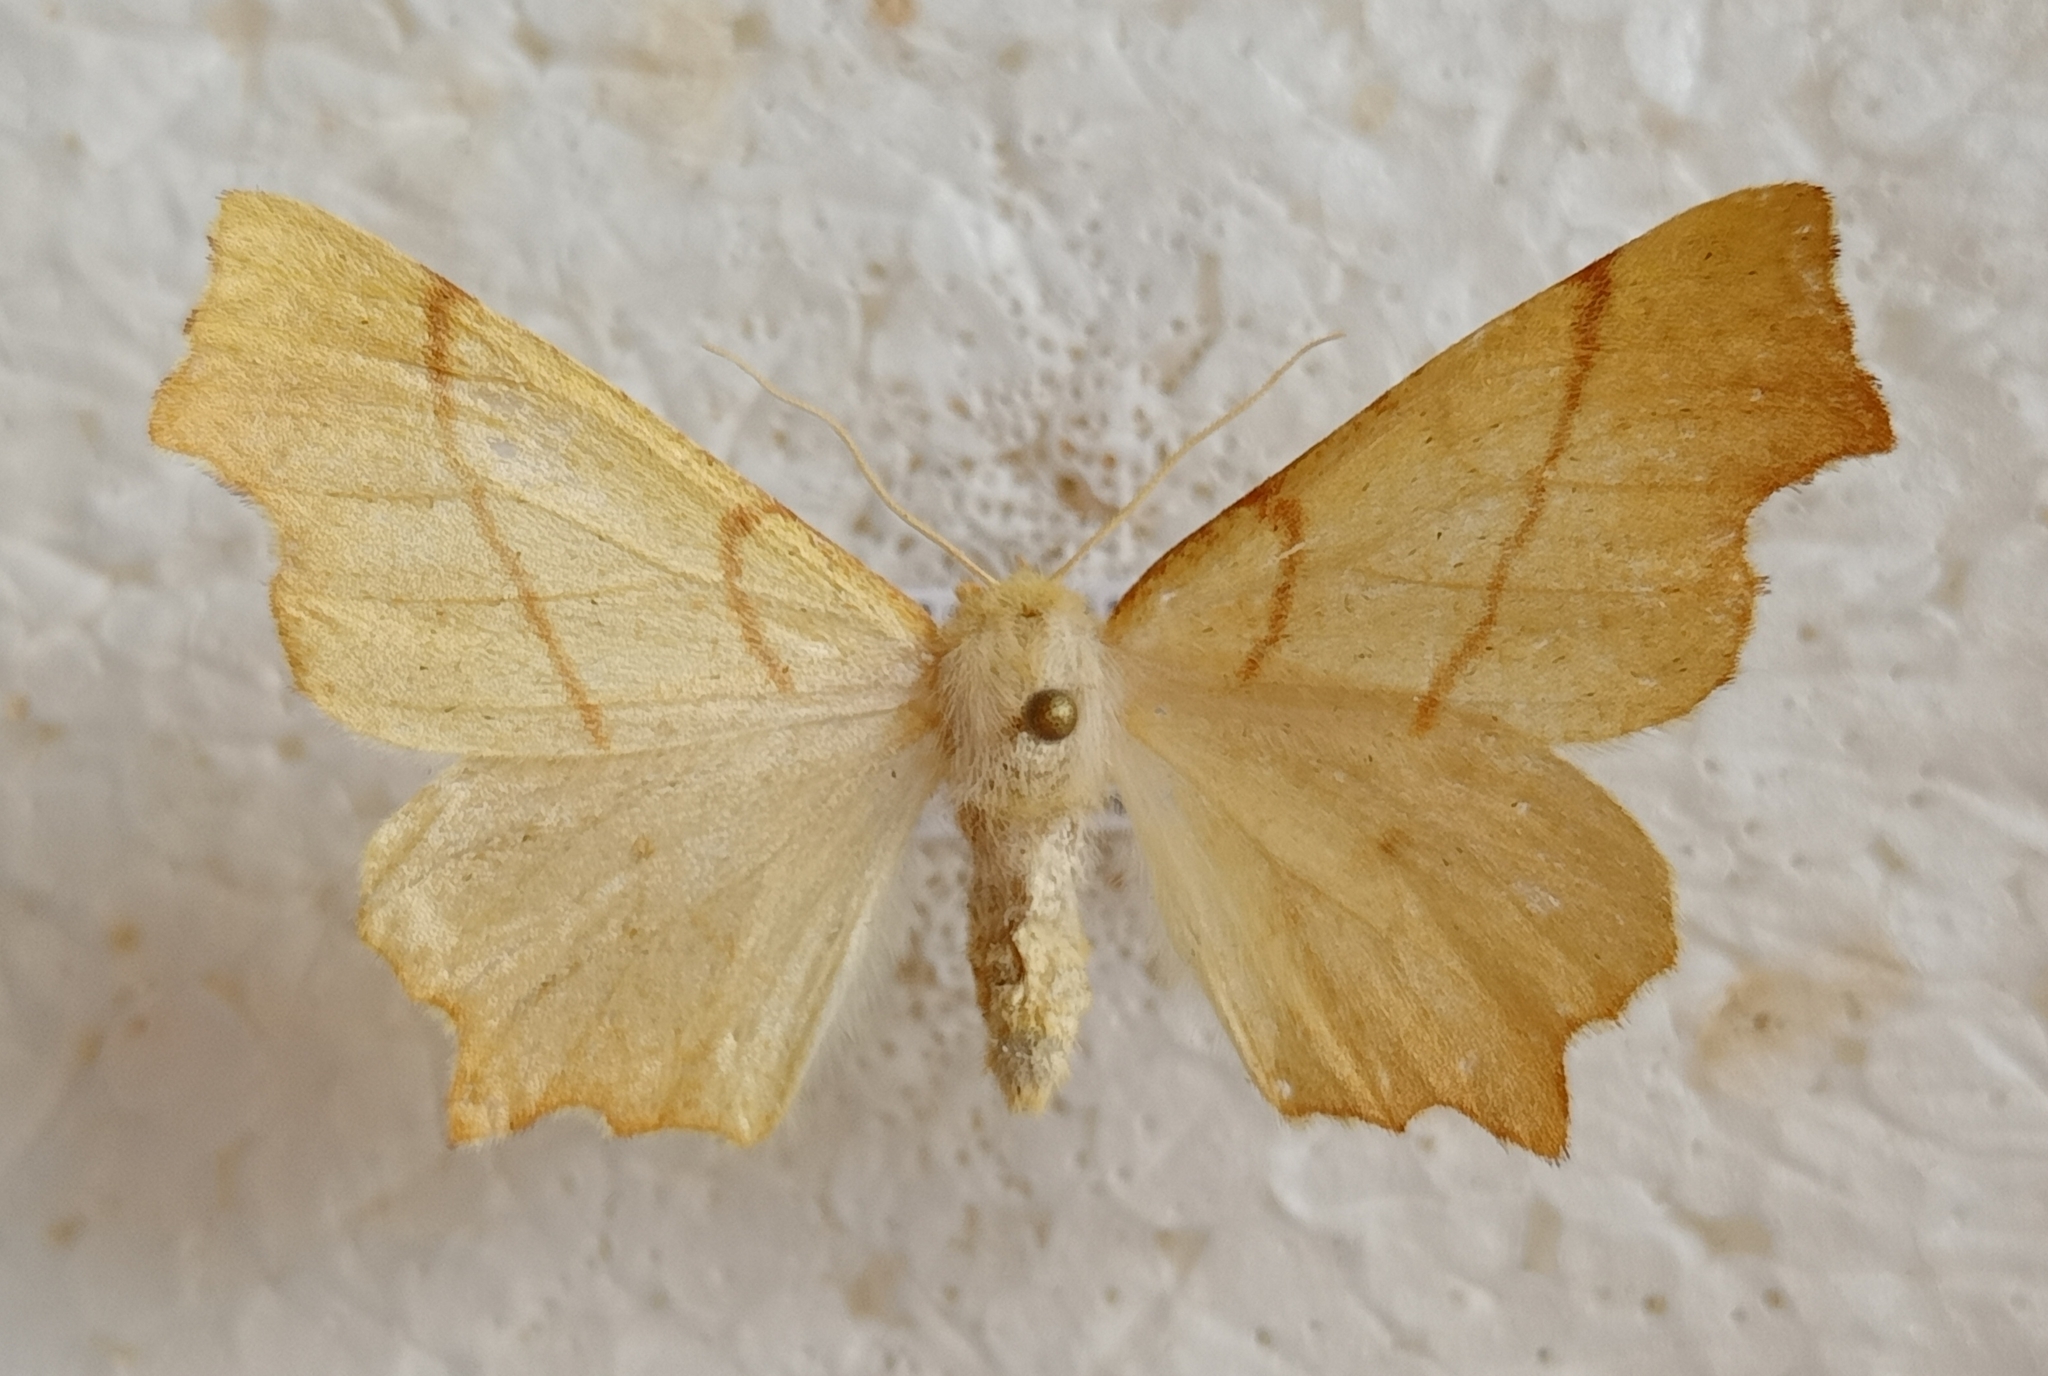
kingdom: Animalia
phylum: Arthropoda
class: Insecta
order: Lepidoptera
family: Geometridae
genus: Ennomos
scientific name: Ennomos erosaria
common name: September thorn
